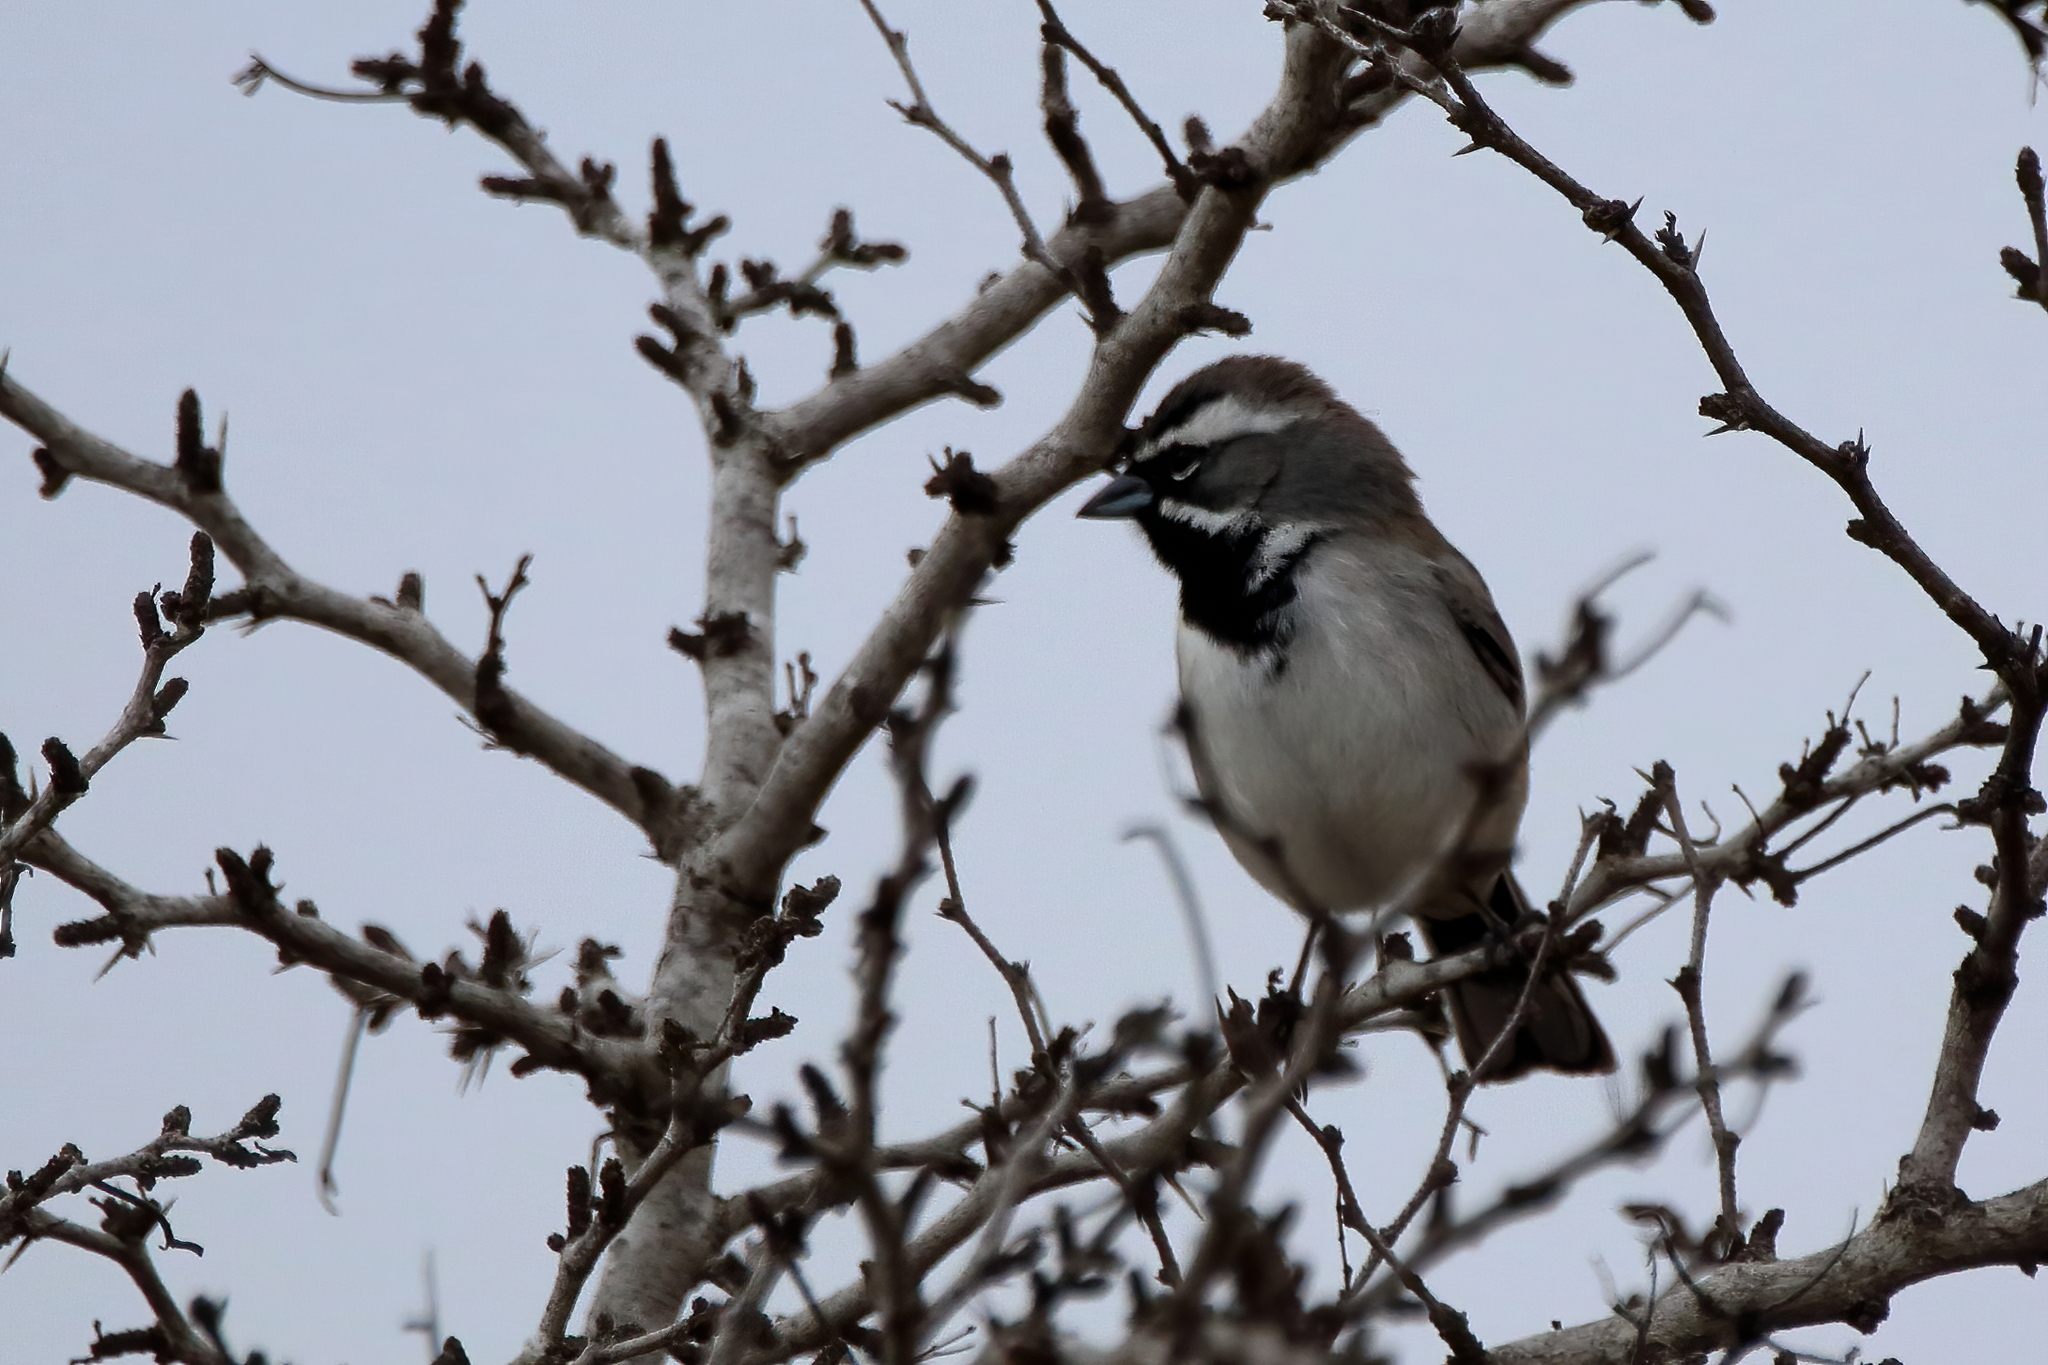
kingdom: Animalia
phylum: Chordata
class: Aves
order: Passeriformes
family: Passerellidae
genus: Amphispiza
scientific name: Amphispiza bilineata
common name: Black-throated sparrow
